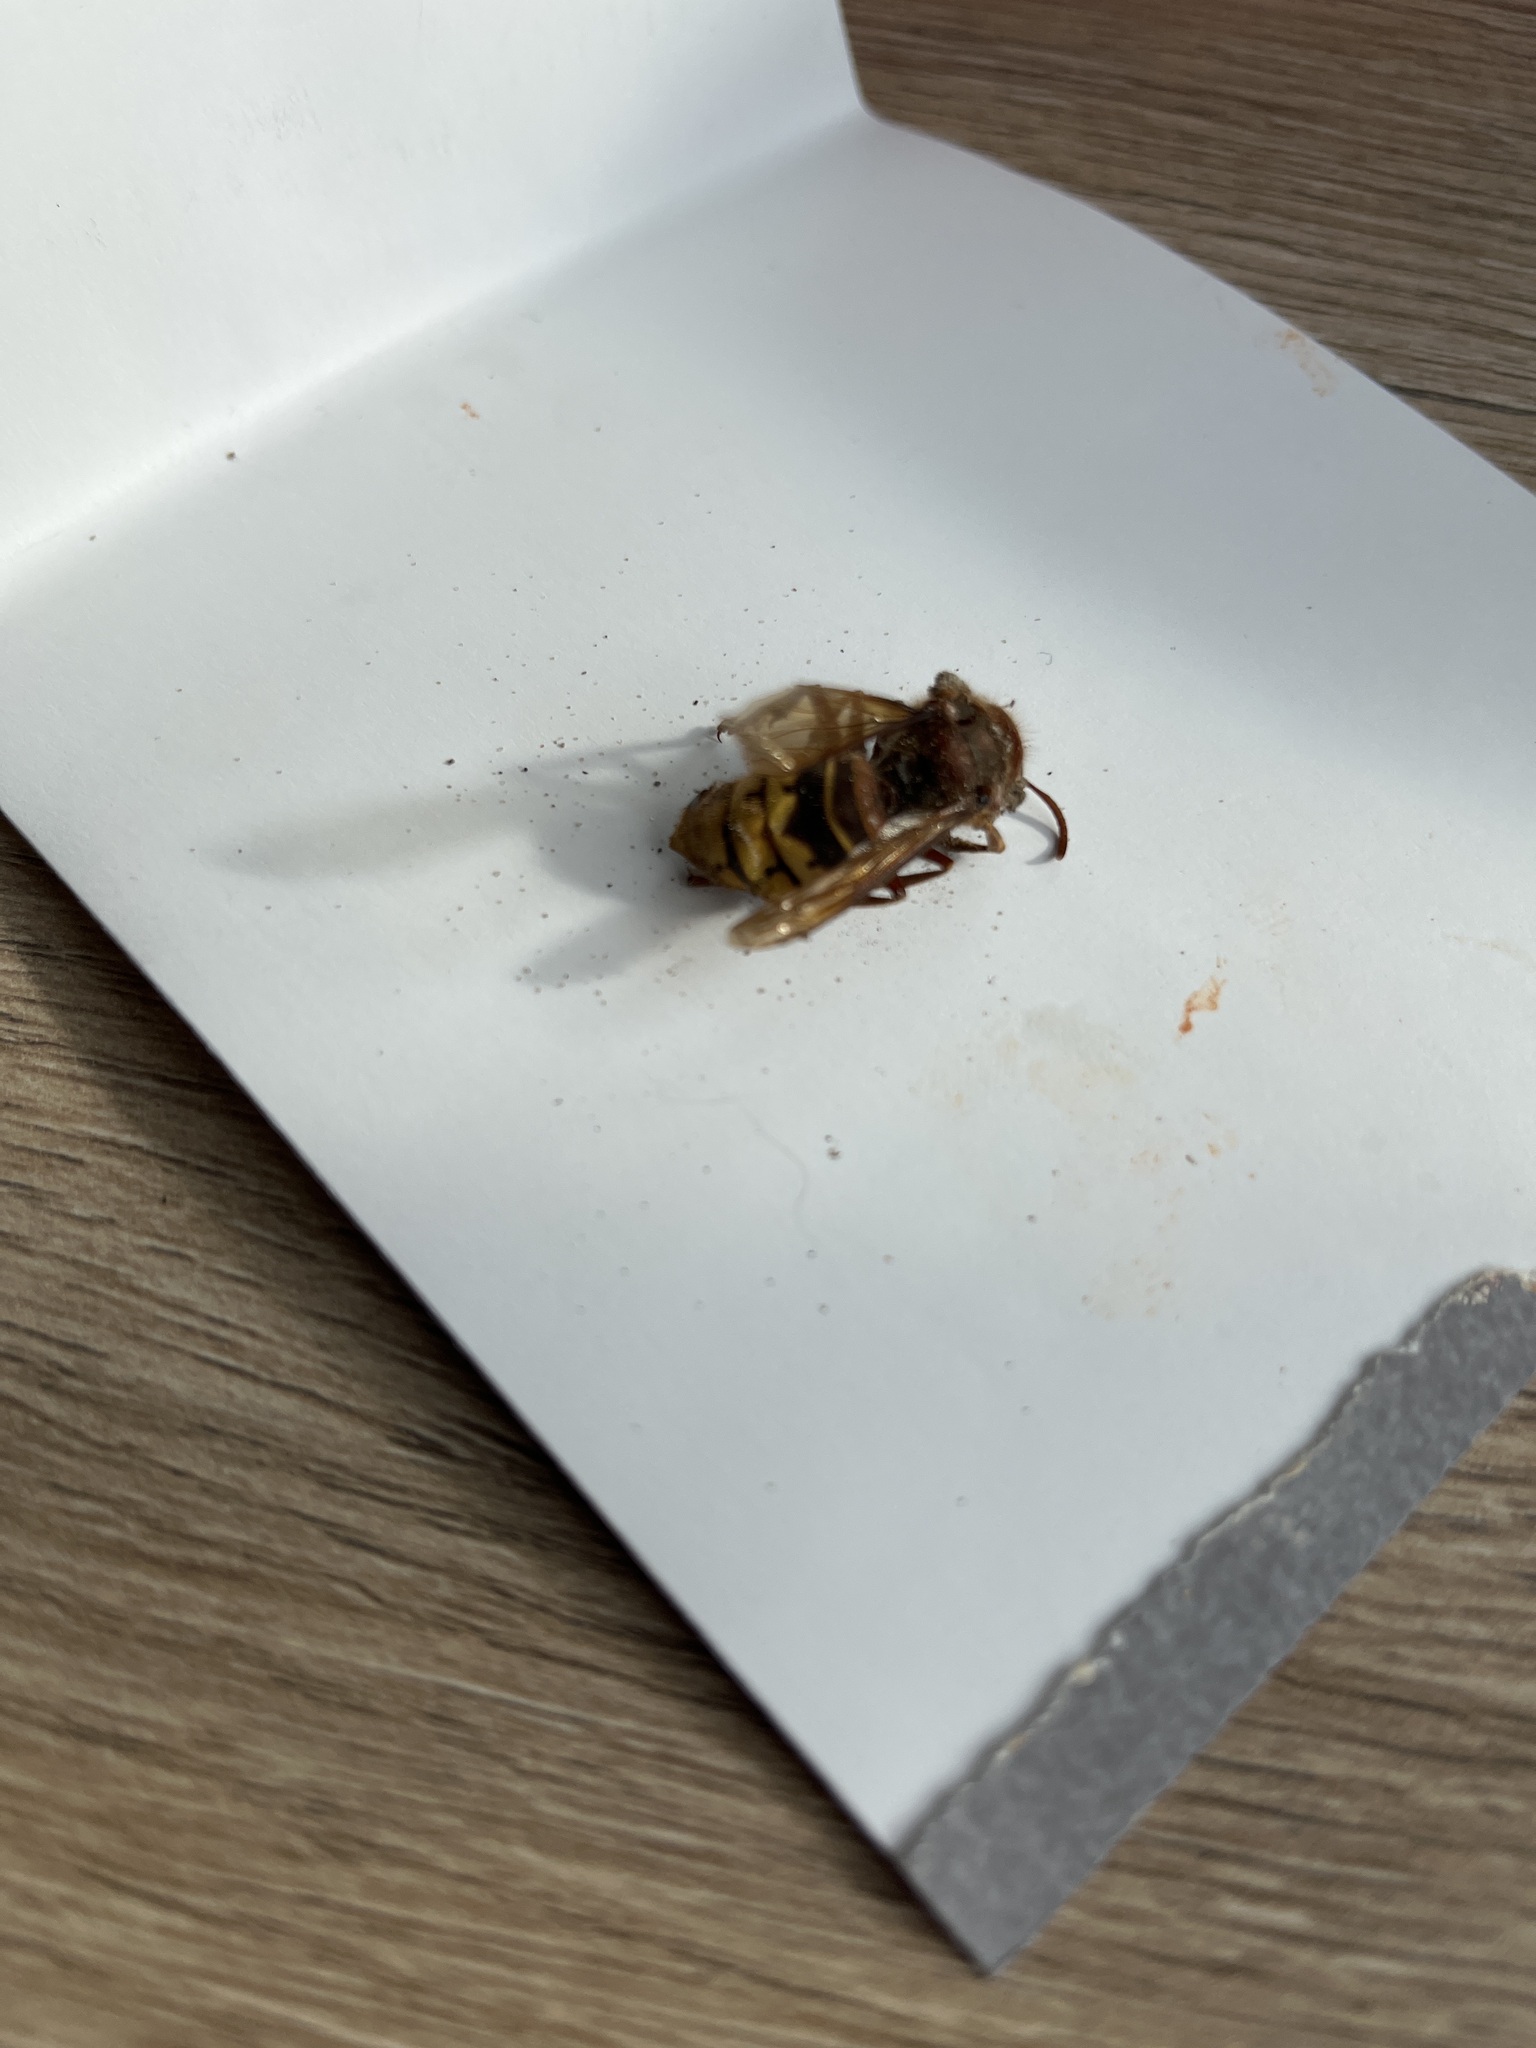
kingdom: Animalia
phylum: Arthropoda
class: Insecta
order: Hymenoptera
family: Vespidae
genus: Vespa
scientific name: Vespa crabro
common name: Hornet
